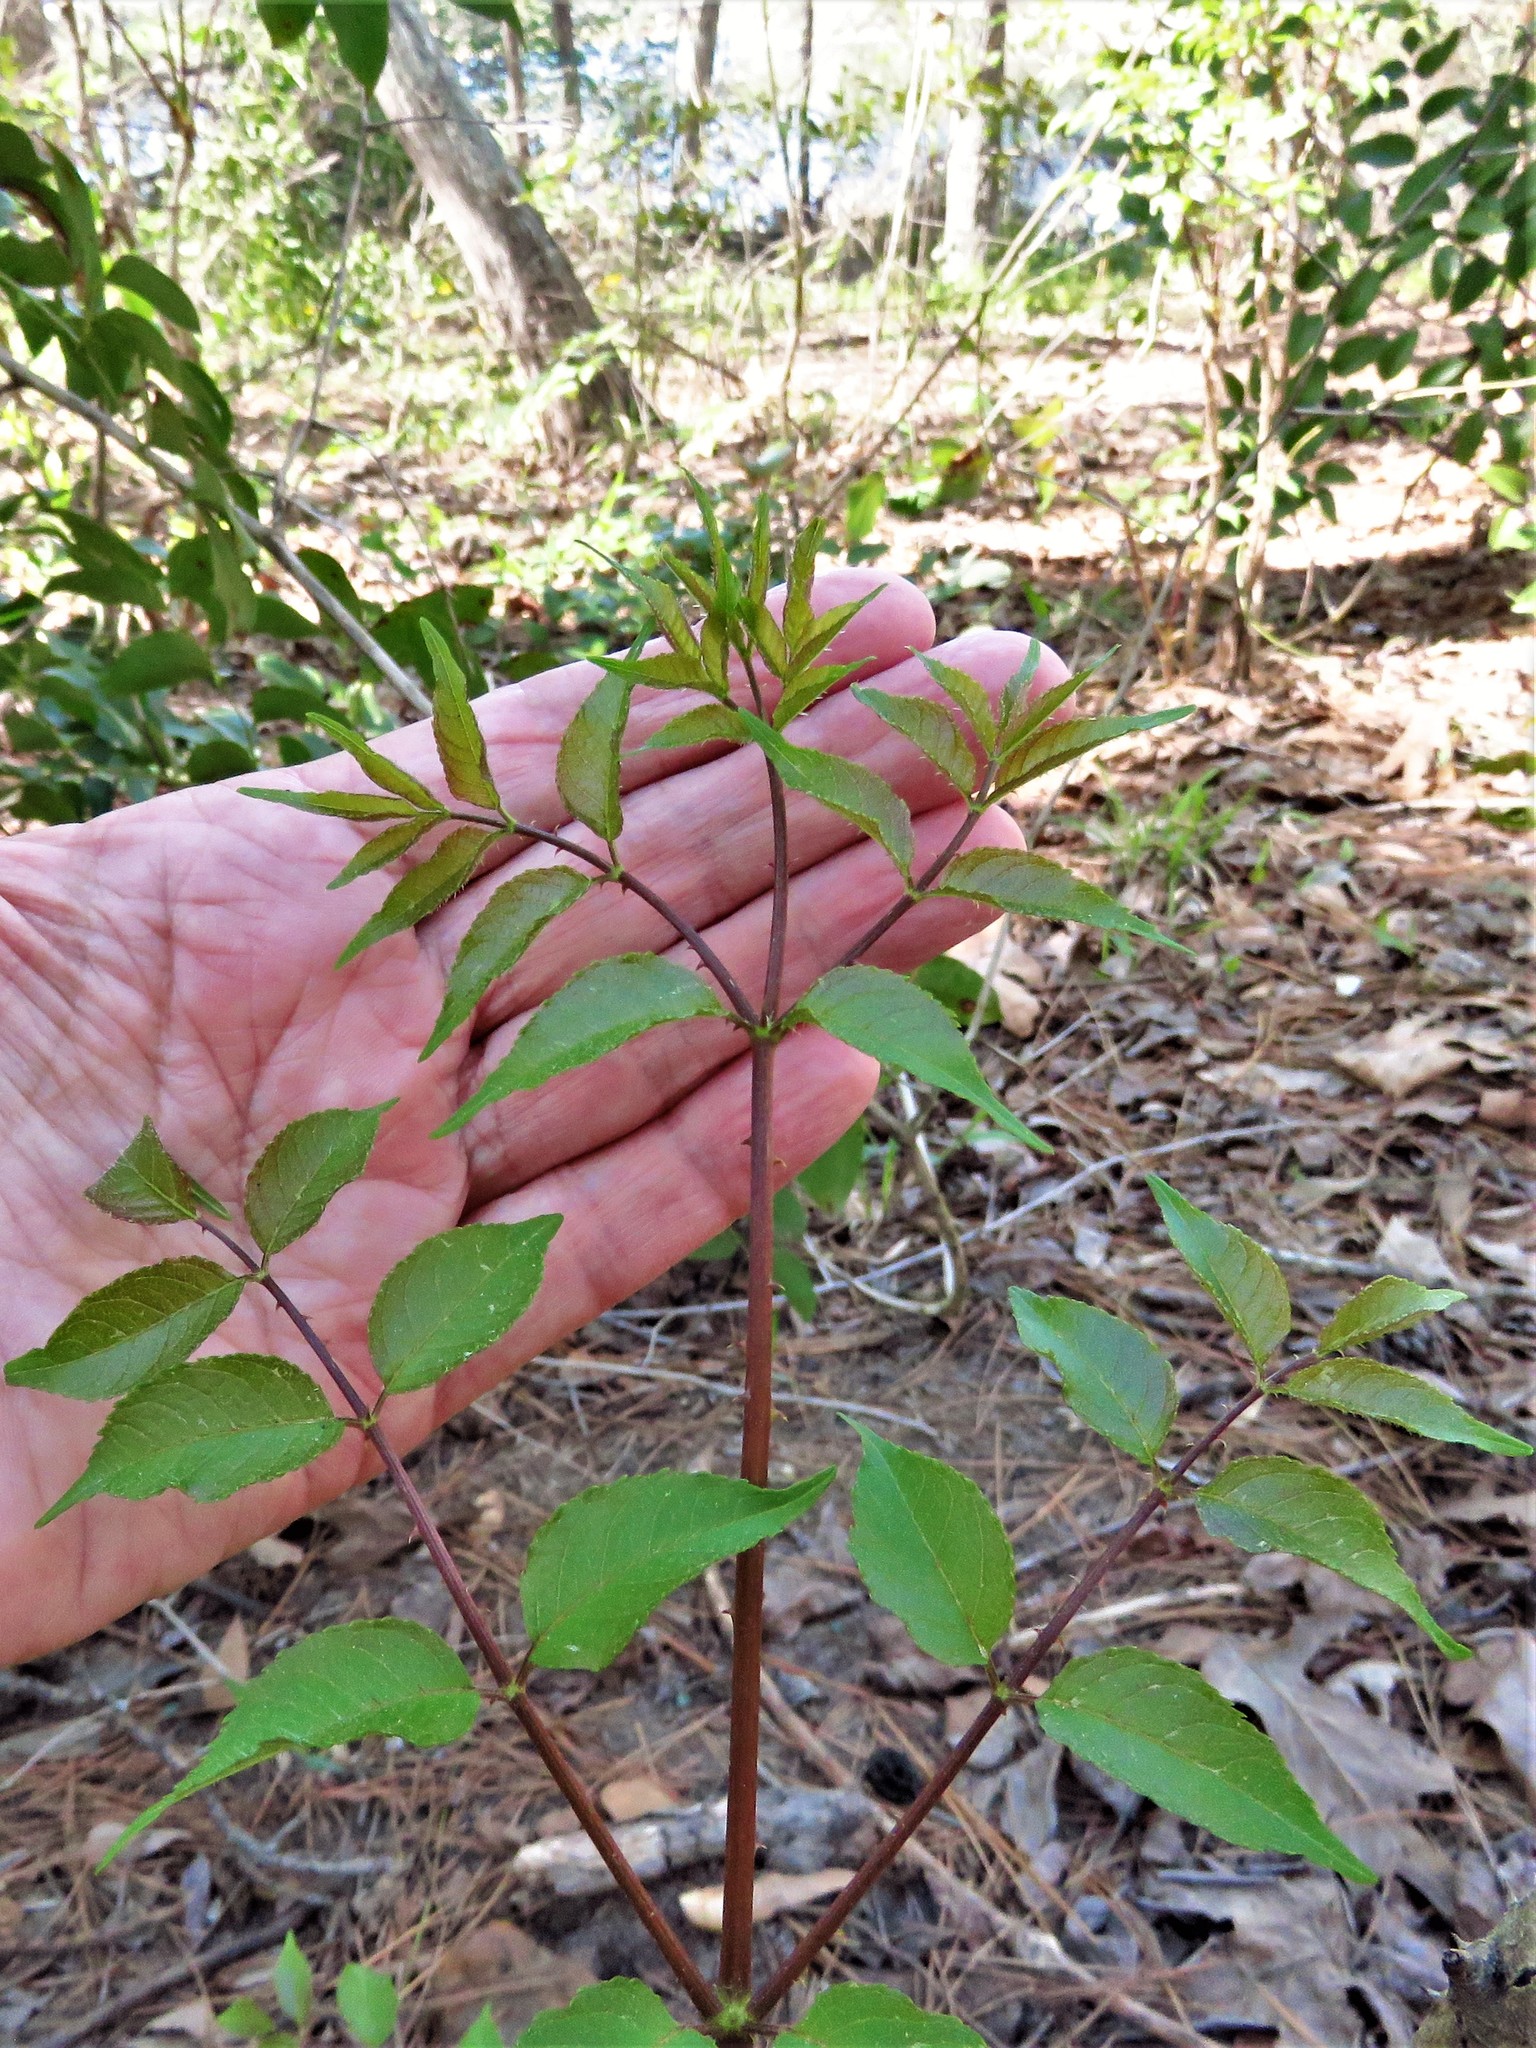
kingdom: Plantae
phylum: Tracheophyta
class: Magnoliopsida
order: Apiales
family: Araliaceae
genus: Aralia
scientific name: Aralia spinosa
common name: Hercules'-club
